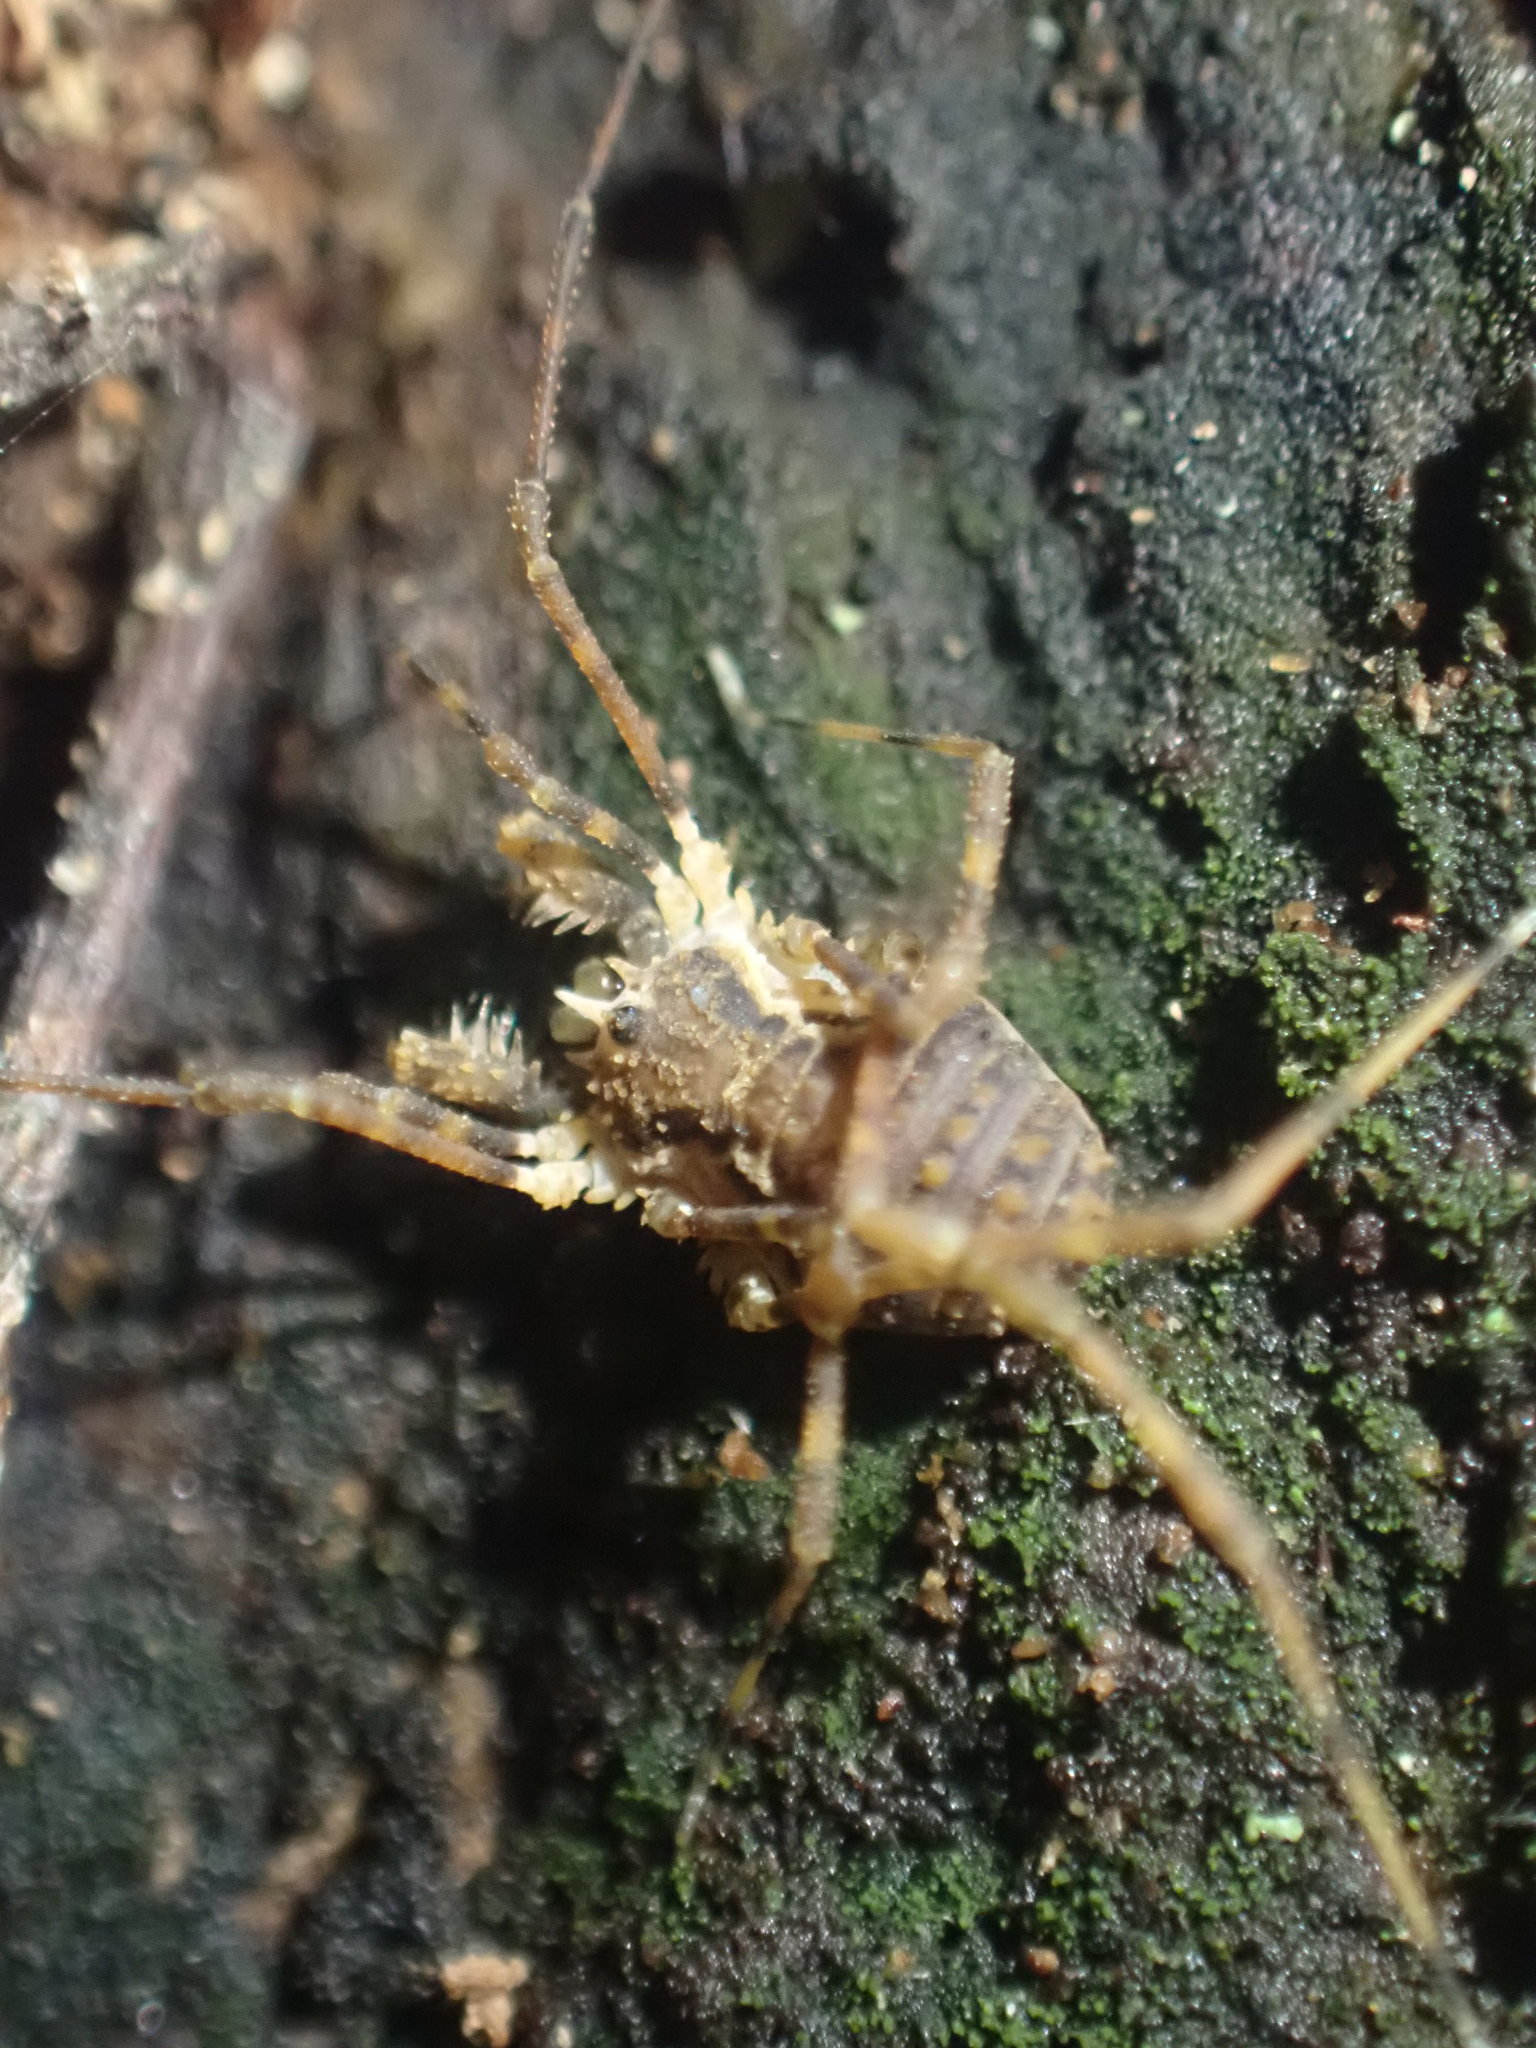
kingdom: Animalia
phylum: Arthropoda
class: Arachnida
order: Opiliones
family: Triaenonychidae
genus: Algidia
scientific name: Algidia chiltoni
